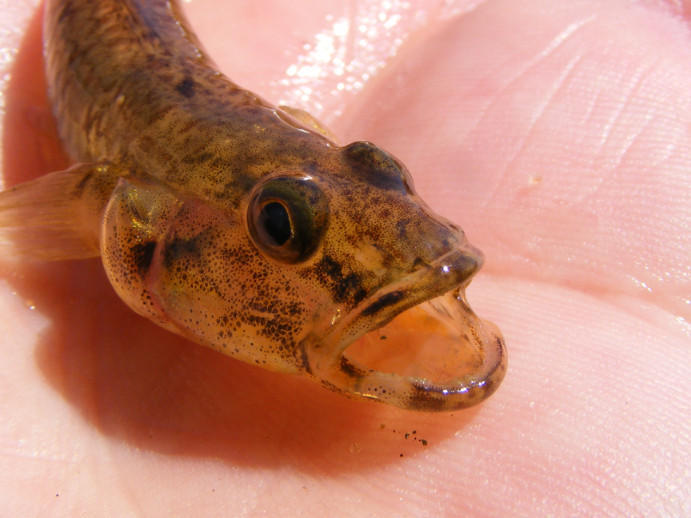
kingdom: Animalia
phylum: Chordata
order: Perciformes
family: Gobiidae
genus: Glossogobius
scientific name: Glossogobius callidus
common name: River goby
